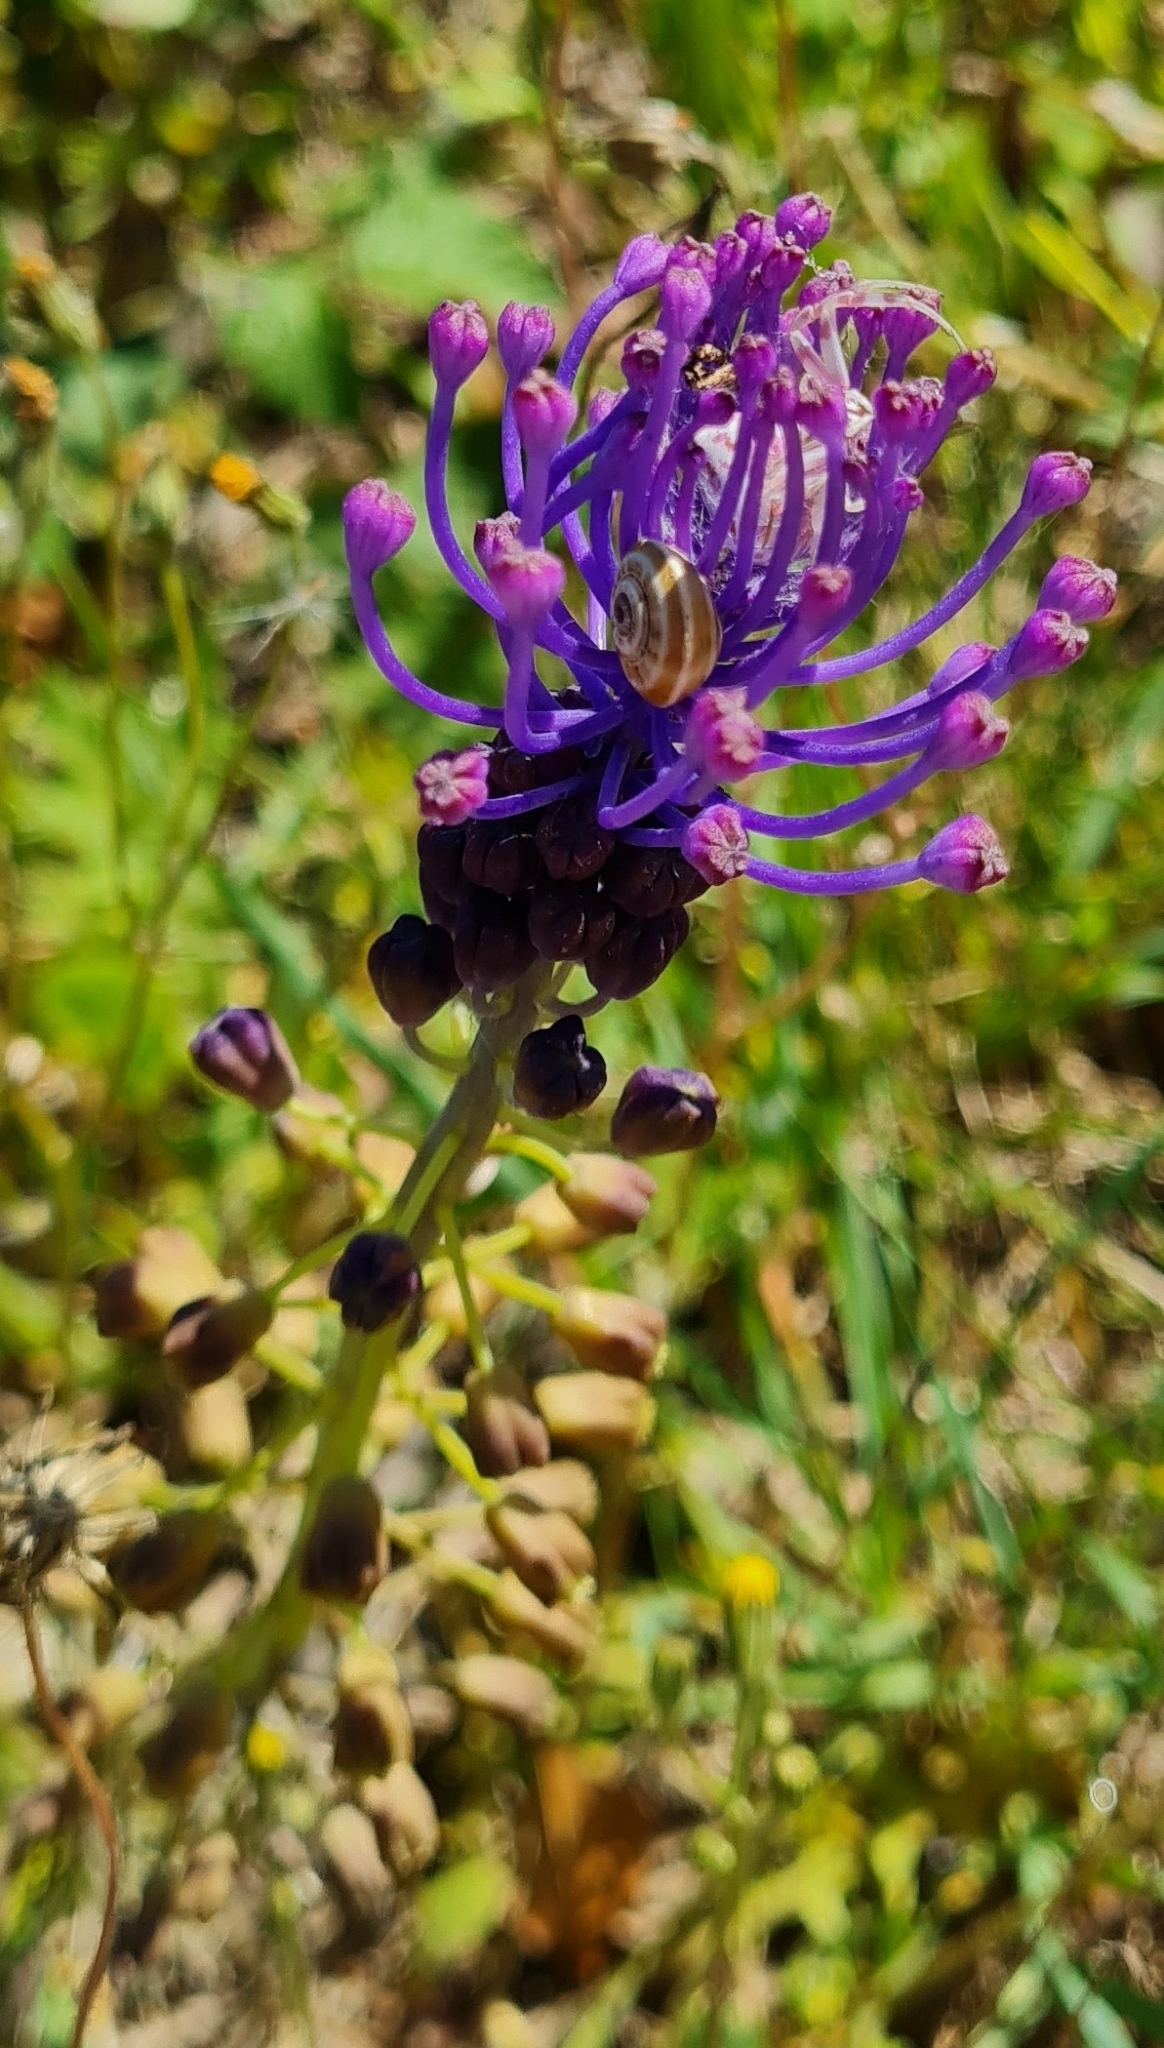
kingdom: Plantae
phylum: Tracheophyta
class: Liliopsida
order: Asparagales
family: Asparagaceae
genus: Muscari
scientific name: Muscari comosum
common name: Tassel hyacinth
